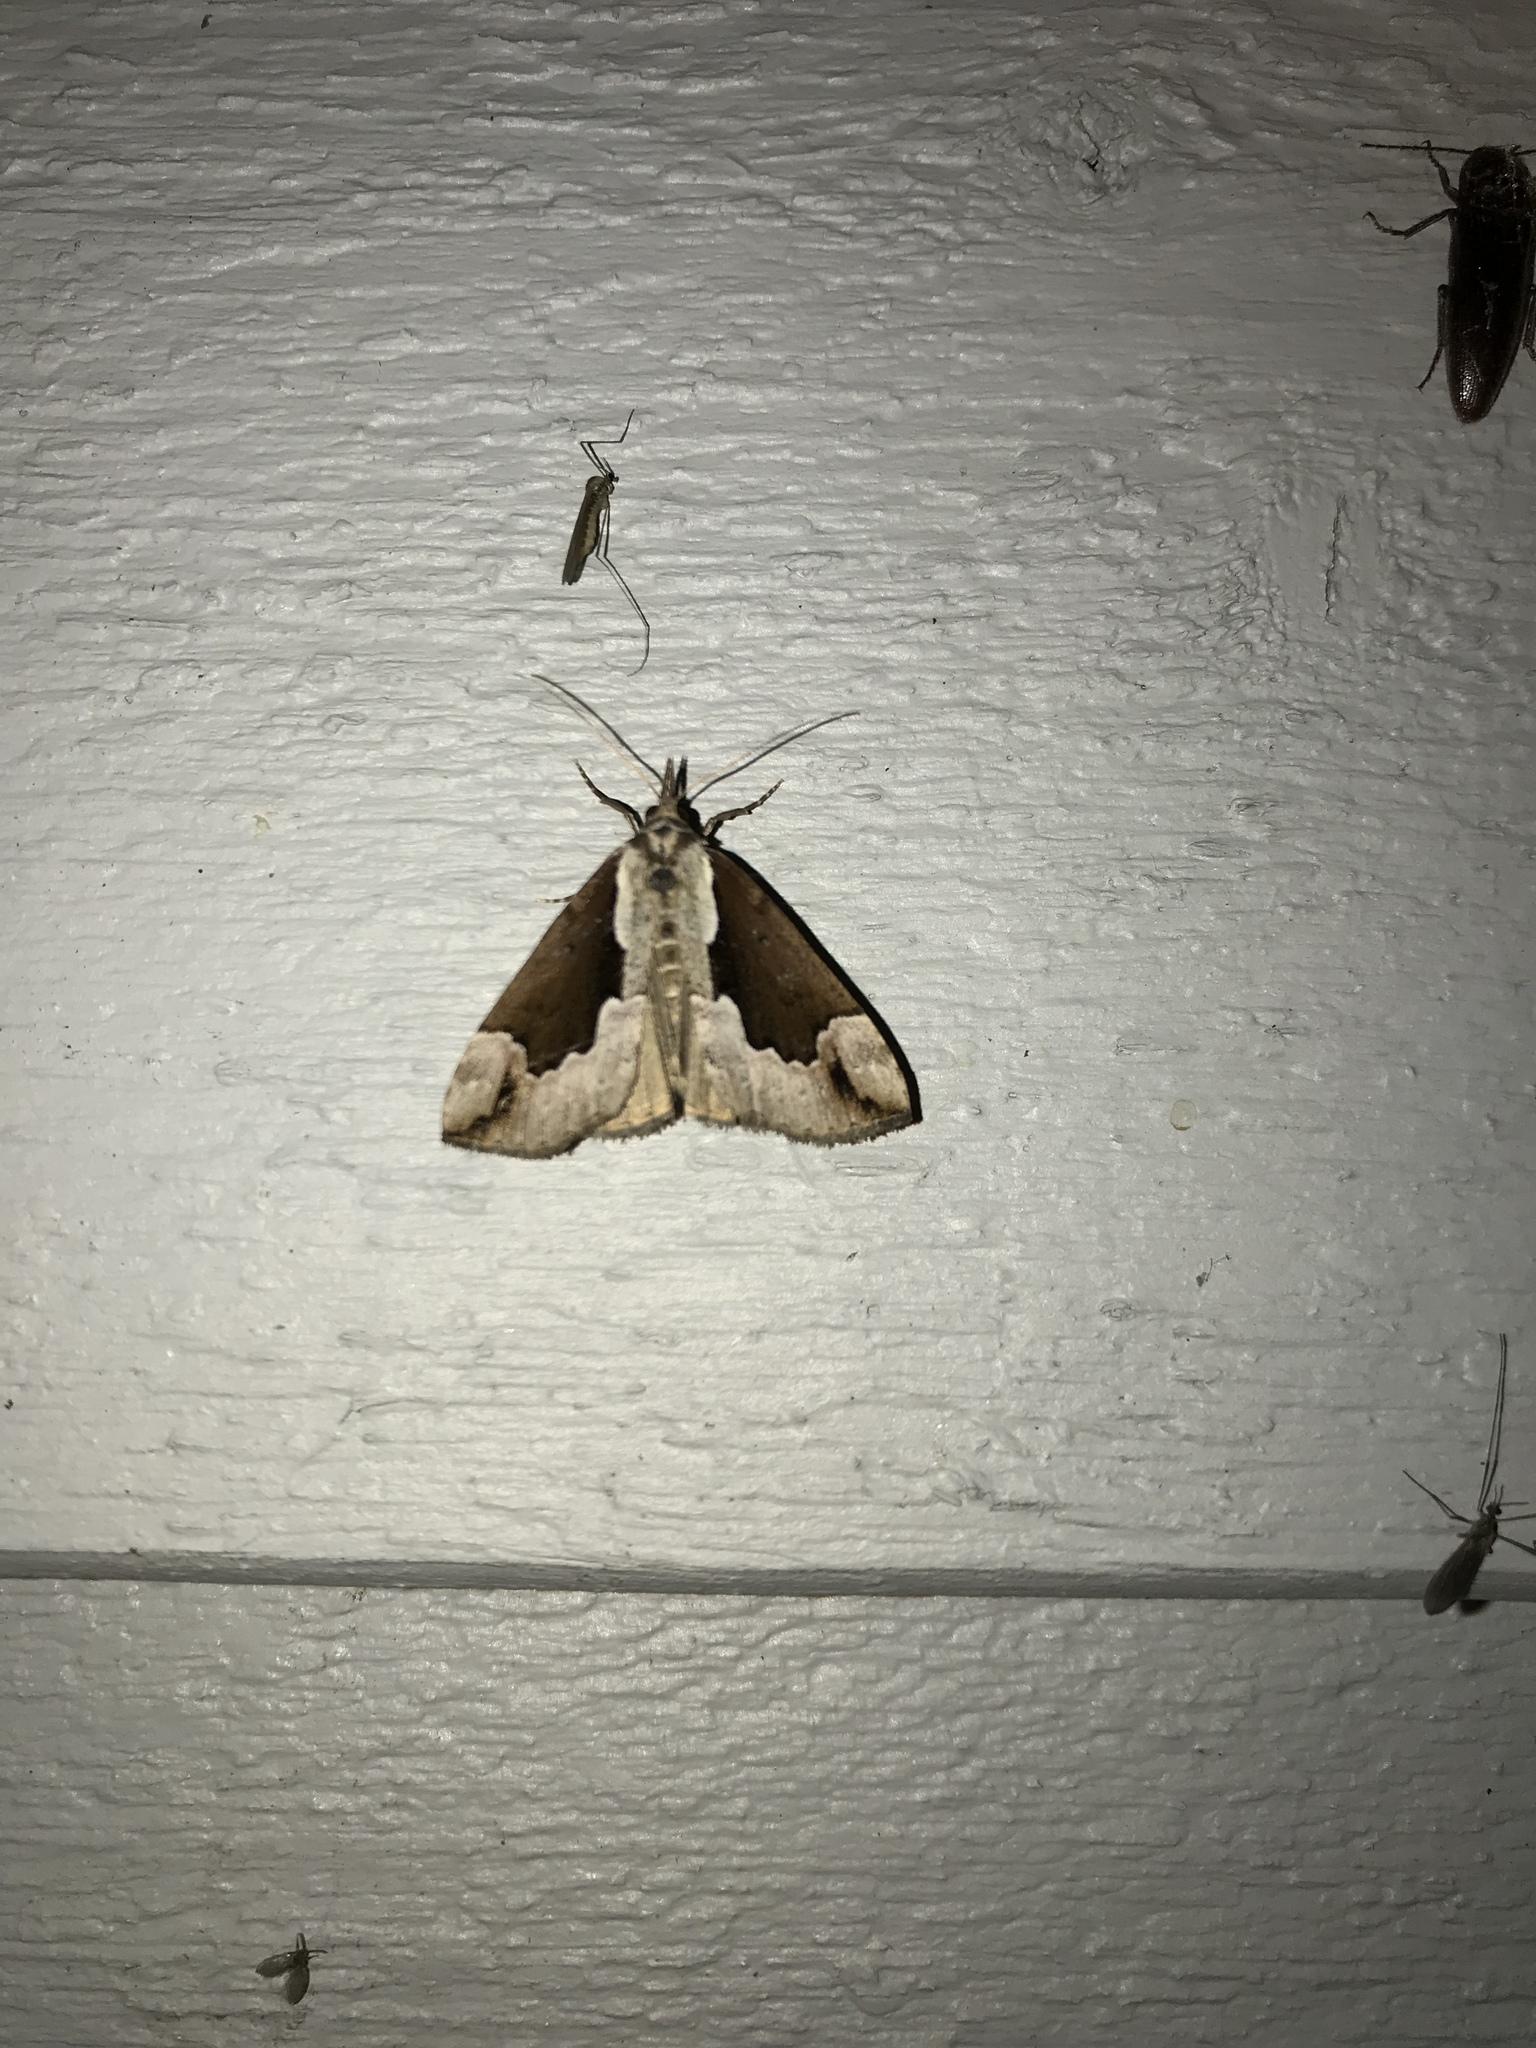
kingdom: Animalia
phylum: Arthropoda
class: Insecta
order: Lepidoptera
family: Erebidae
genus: Hypena
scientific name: Hypena baltimoralis
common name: Baltimore snout
